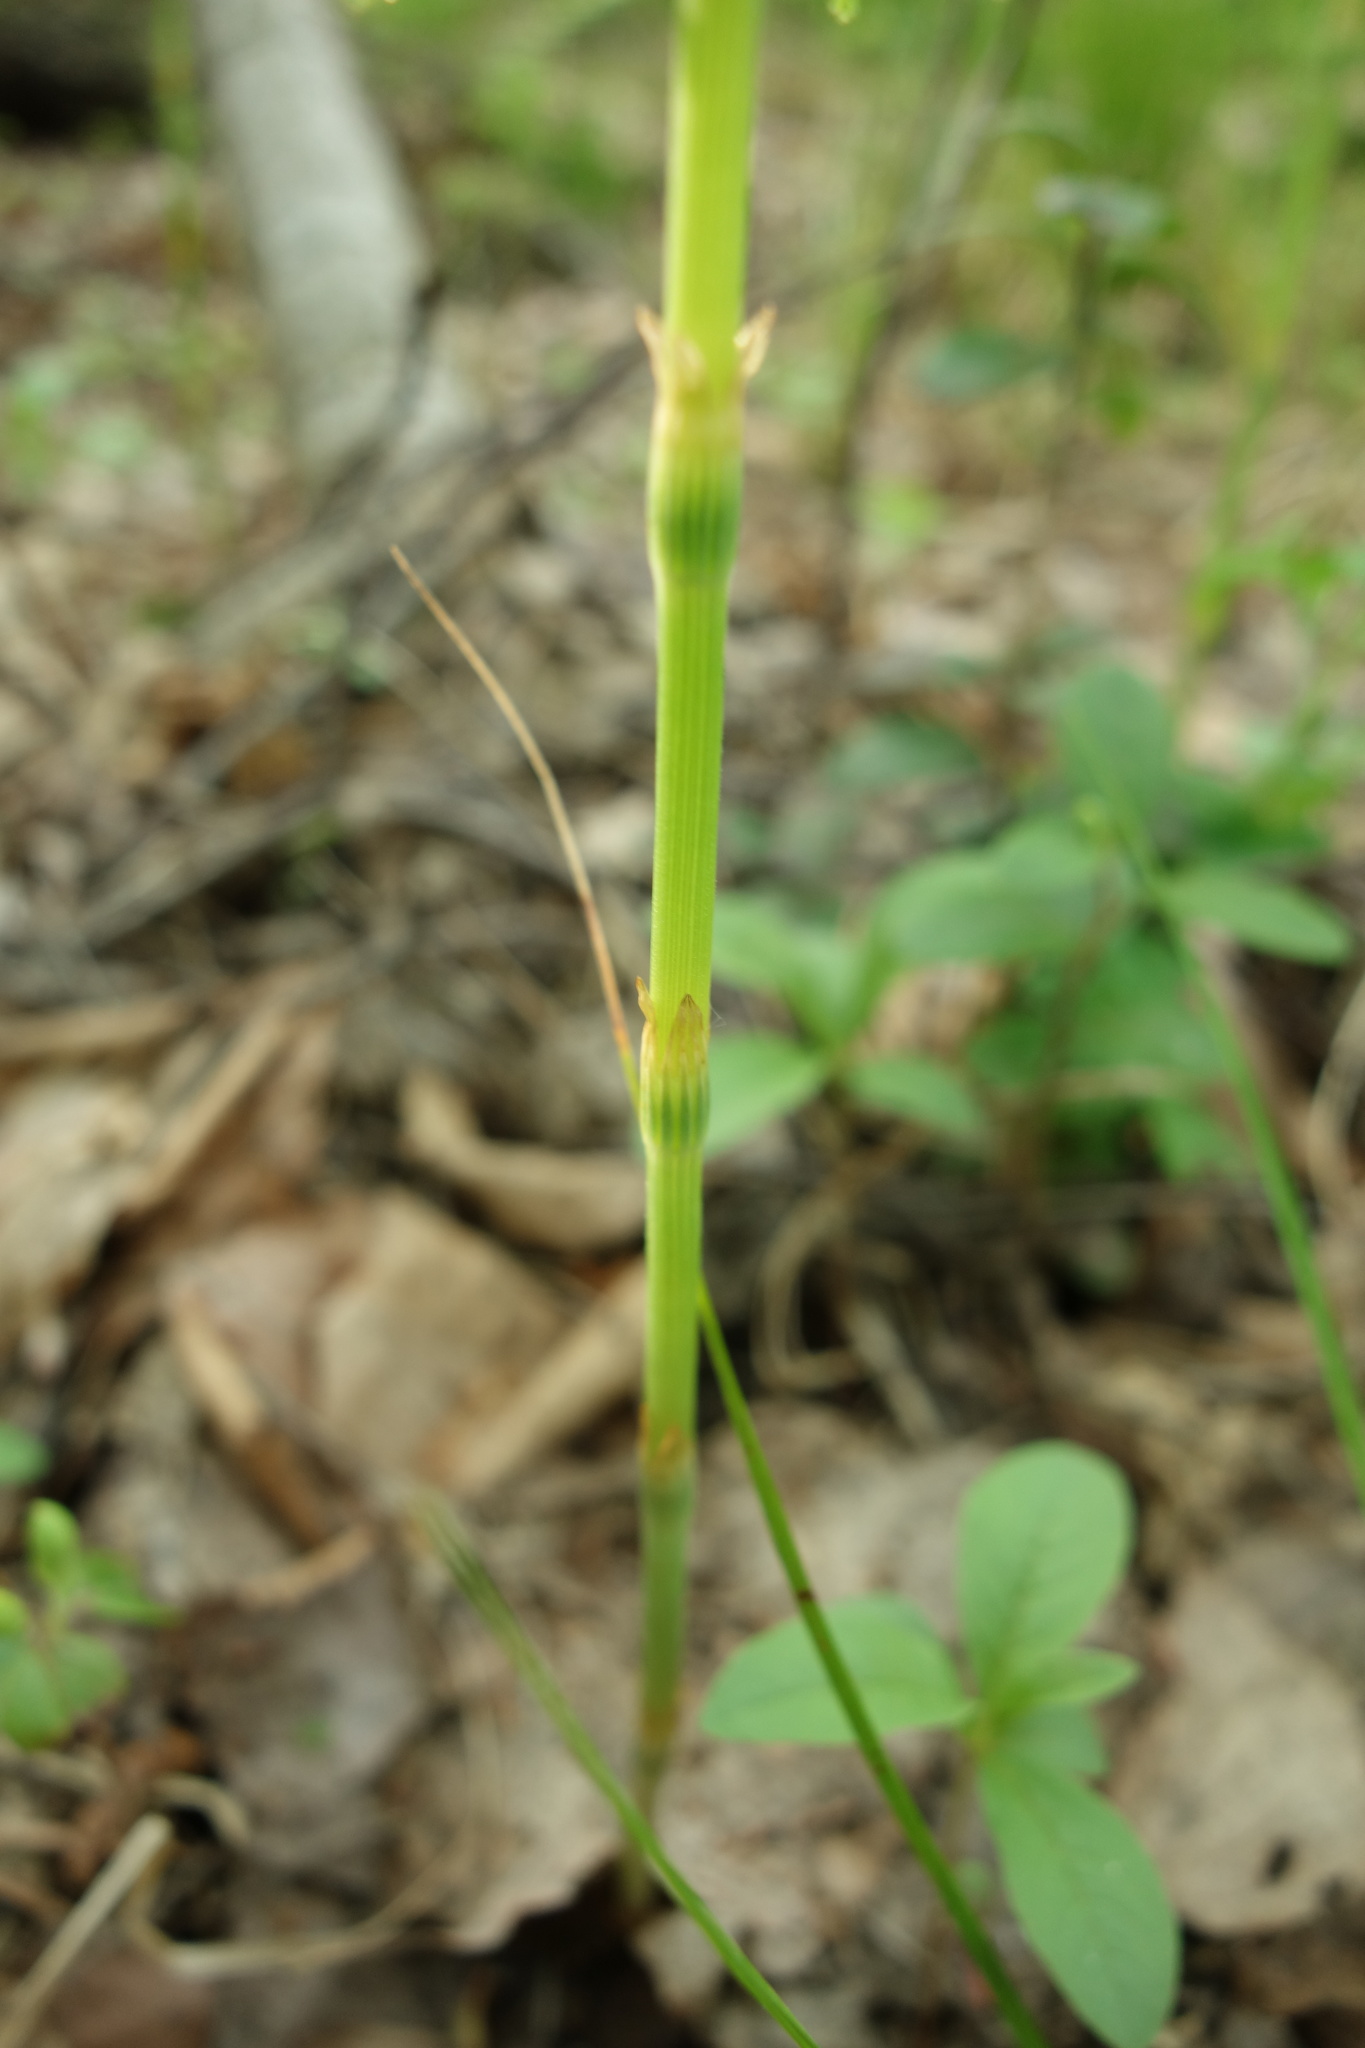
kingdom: Plantae
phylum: Tracheophyta
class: Polypodiopsida
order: Equisetales
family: Equisetaceae
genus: Equisetum
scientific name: Equisetum sylvaticum
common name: Wood horsetail
